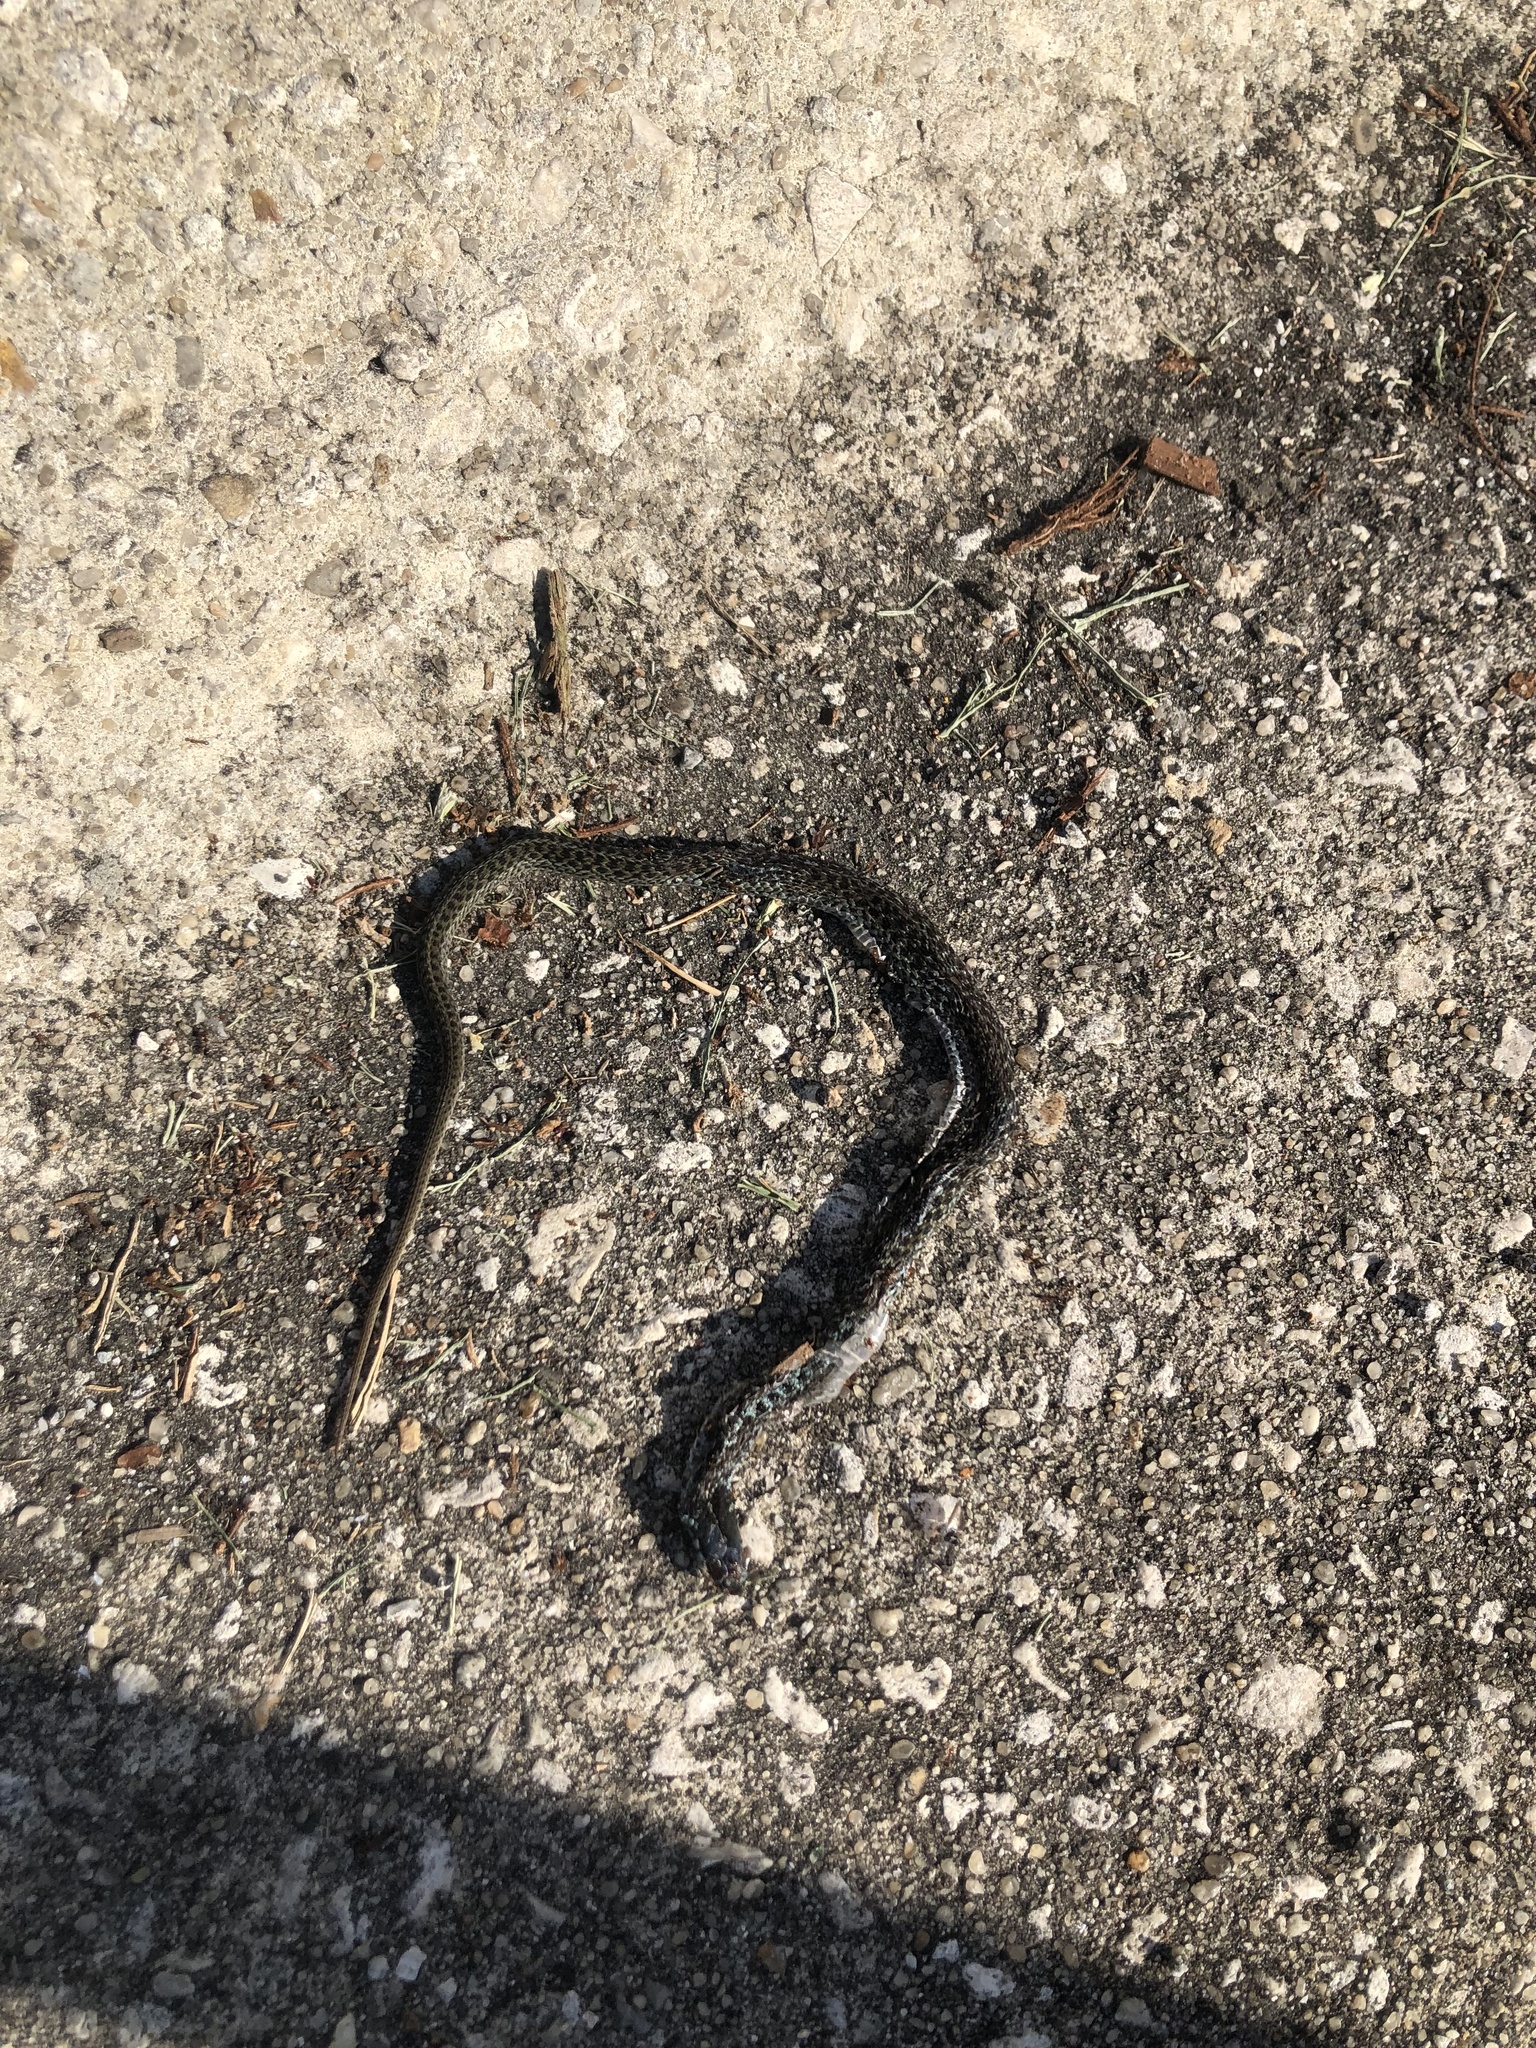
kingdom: Animalia
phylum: Chordata
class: Squamata
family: Colubridae
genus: Thamnophis
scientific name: Thamnophis sirtalis
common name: Common garter snake
